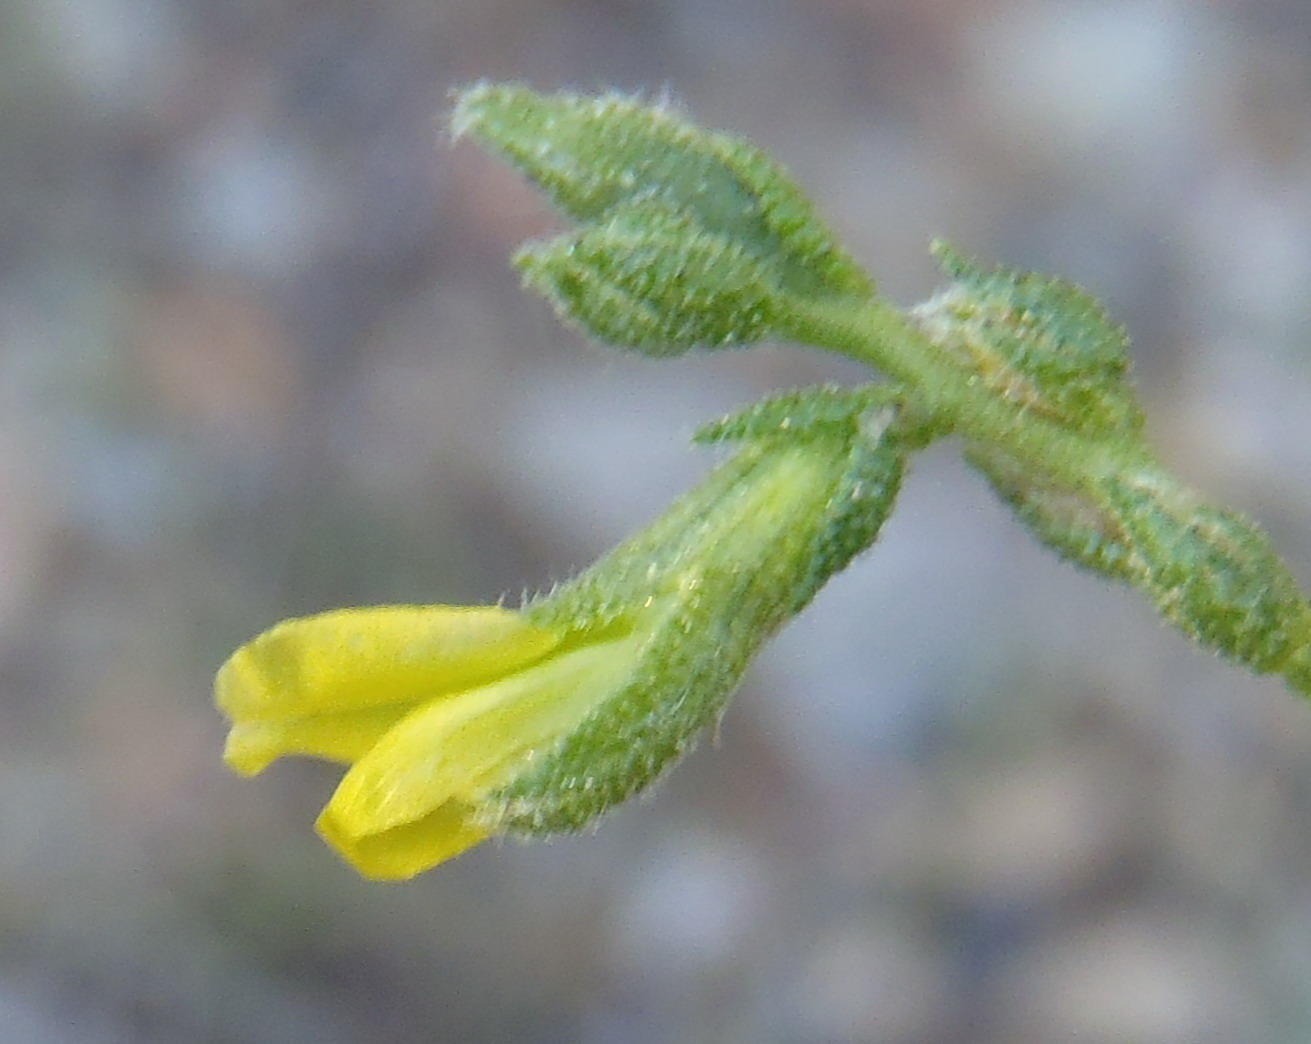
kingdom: Plantae
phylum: Tracheophyta
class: Magnoliopsida
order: Fabales
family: Fabaceae
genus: Melolobium
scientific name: Melolobium adenodes
